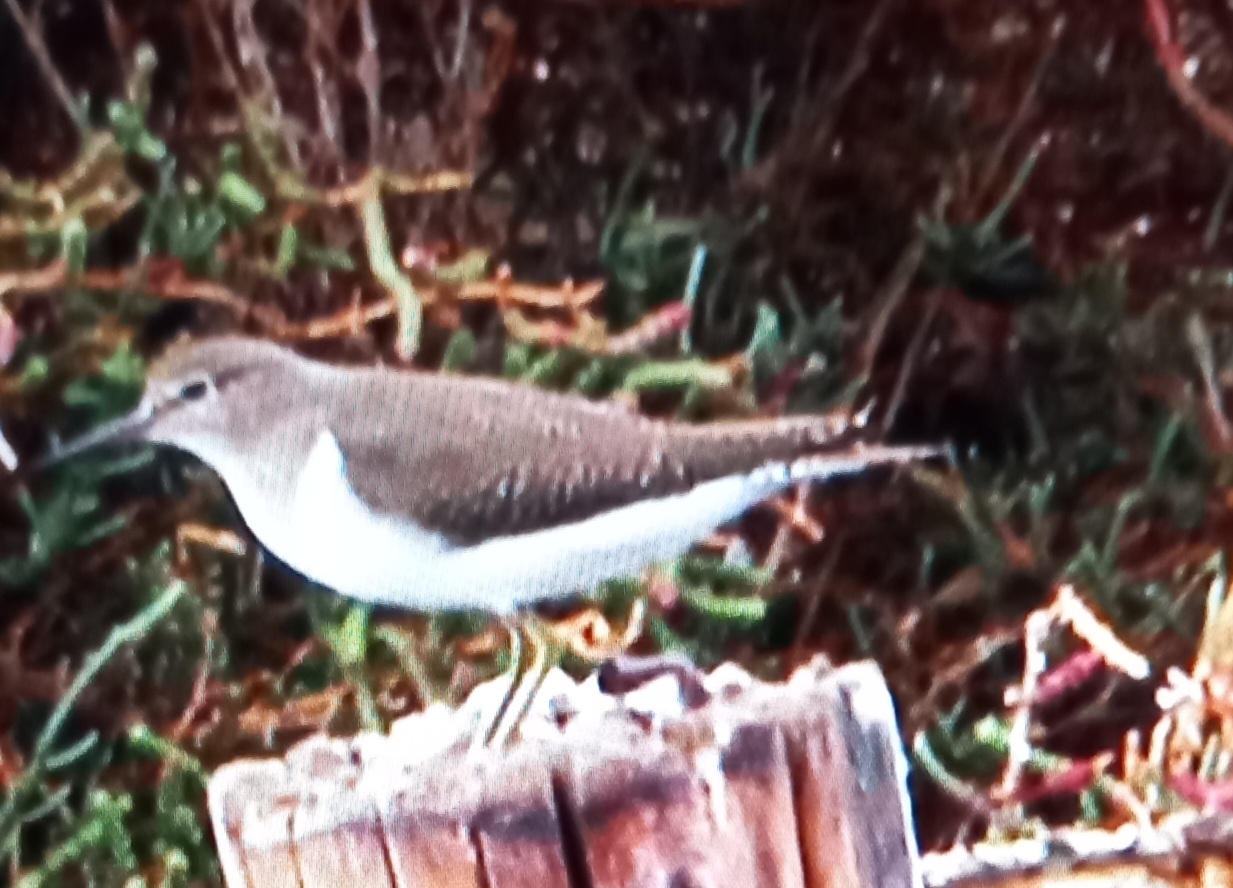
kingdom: Animalia
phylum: Chordata
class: Aves
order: Charadriiformes
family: Scolopacidae
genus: Actitis
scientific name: Actitis hypoleucos
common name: Common sandpiper
